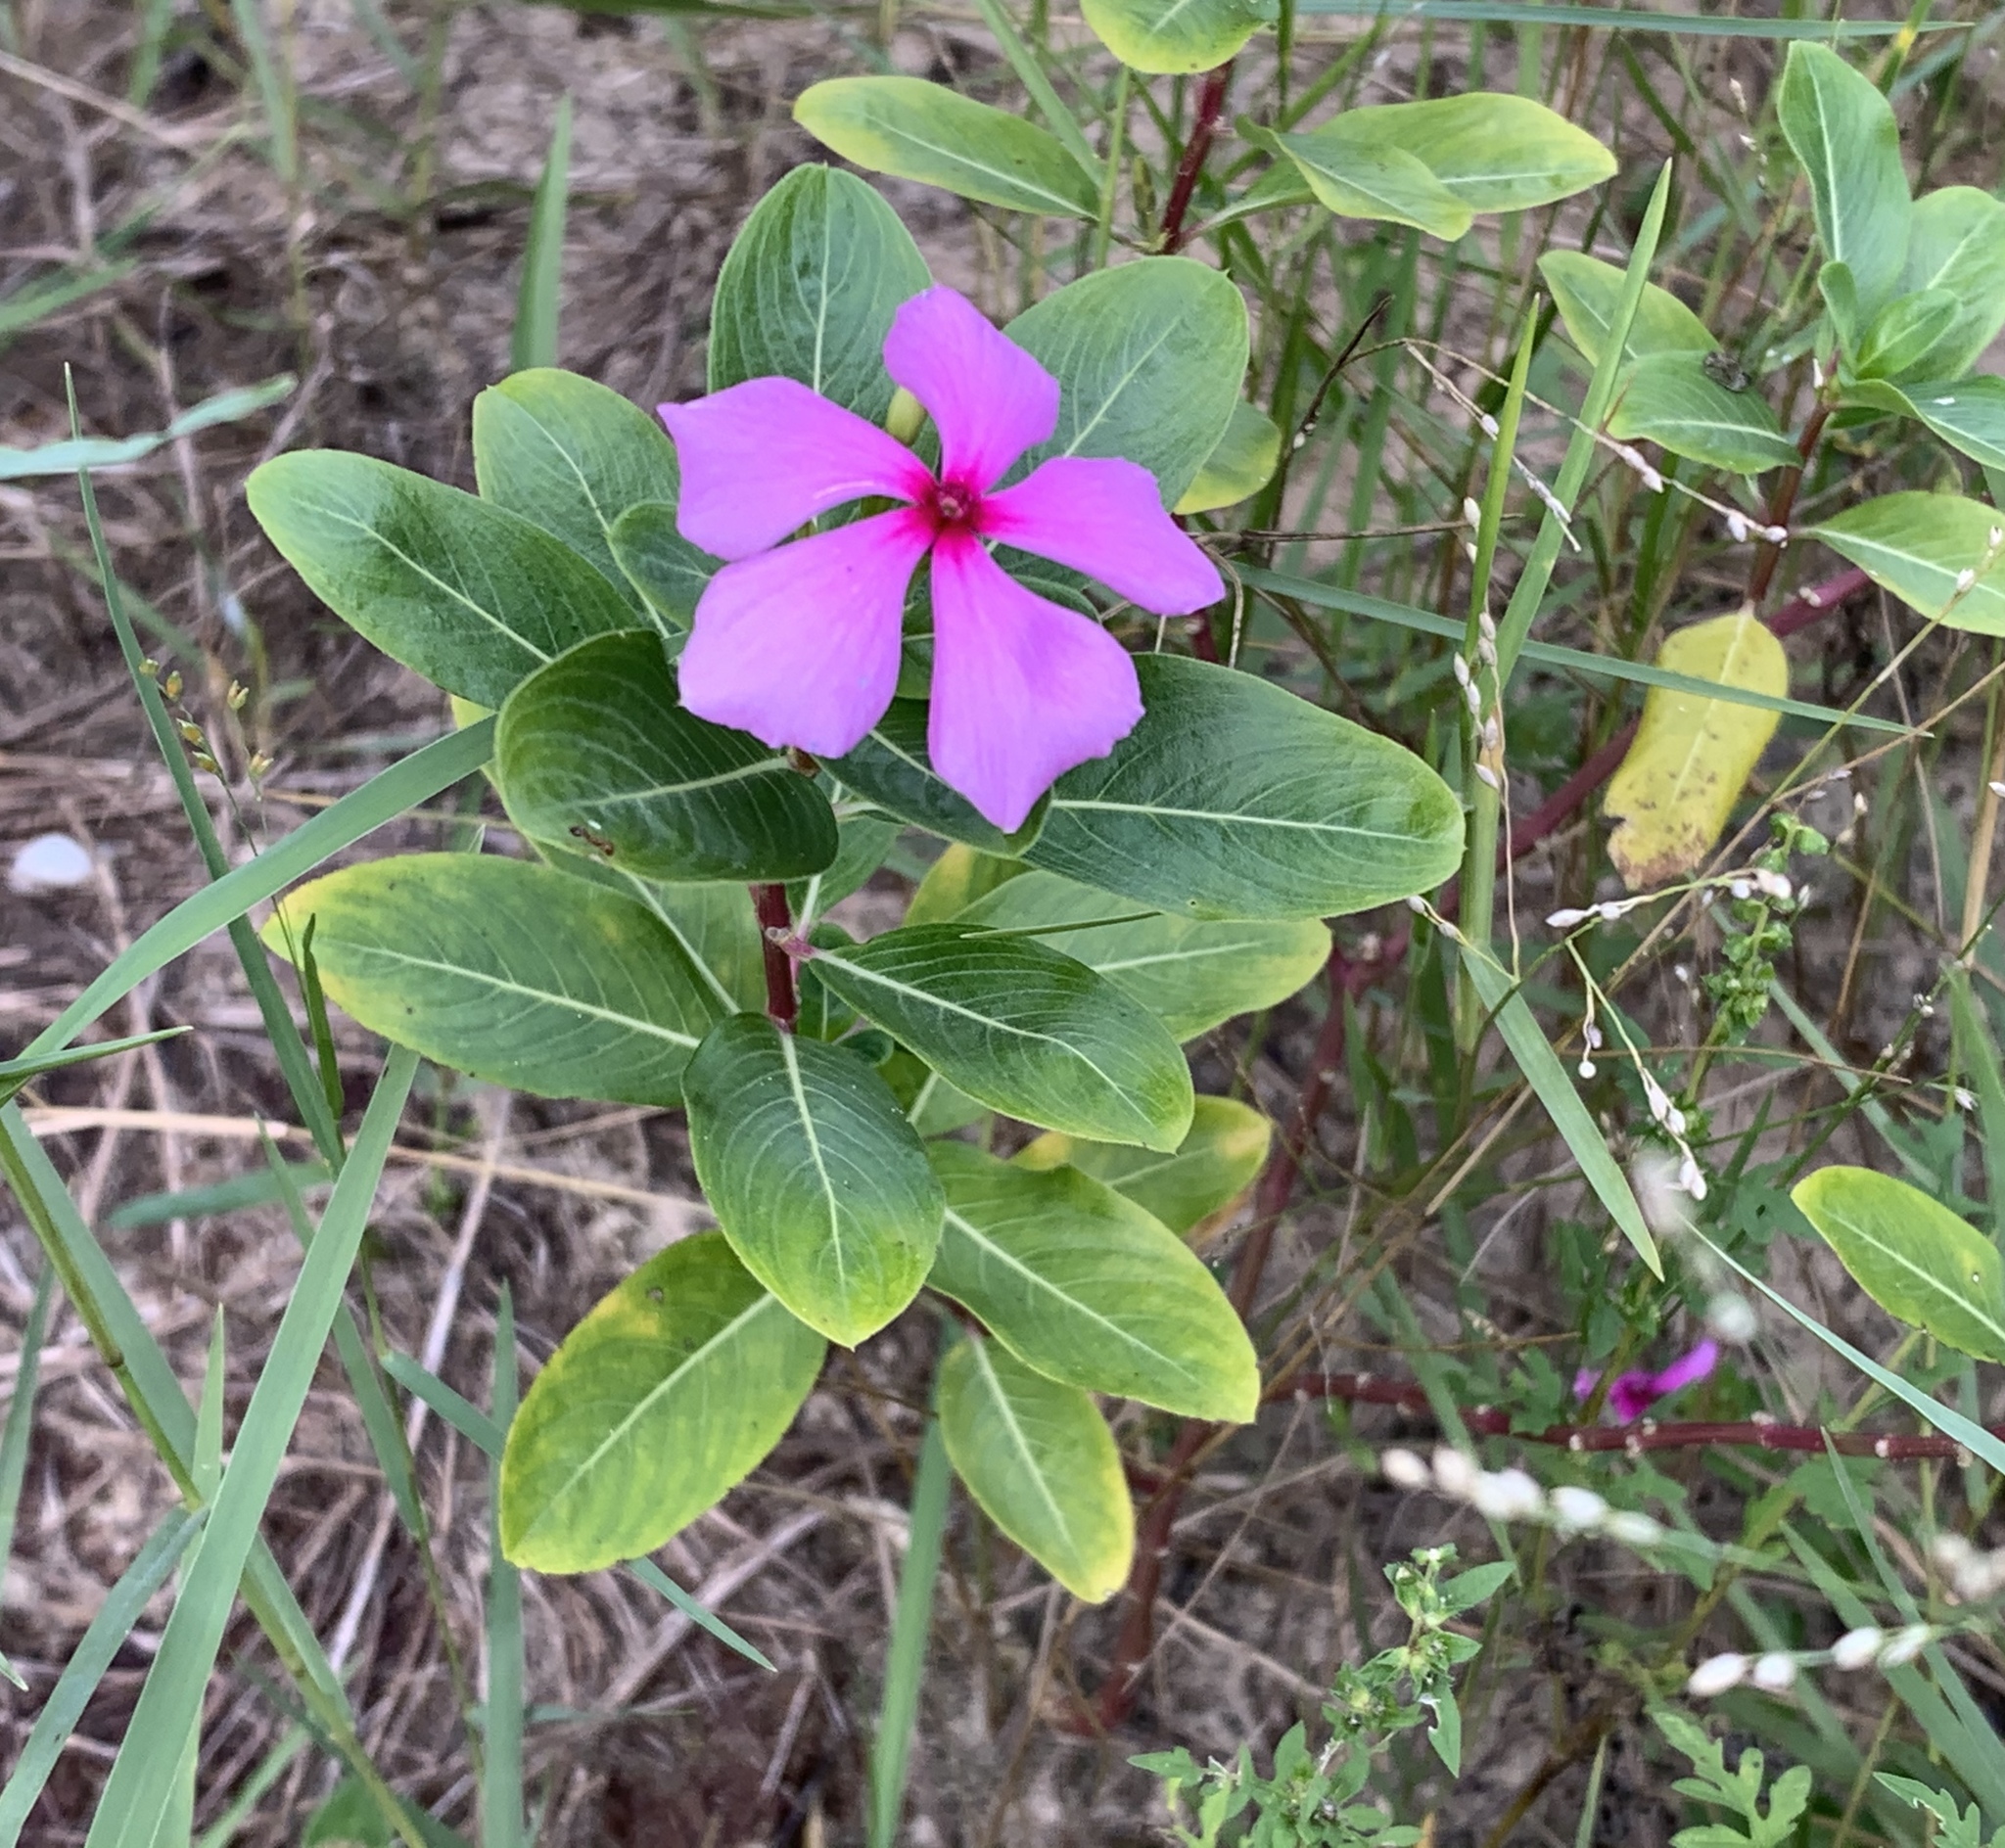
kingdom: Plantae
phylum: Tracheophyta
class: Magnoliopsida
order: Gentianales
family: Apocynaceae
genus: Catharanthus
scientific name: Catharanthus roseus
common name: Madagascar periwinkle
